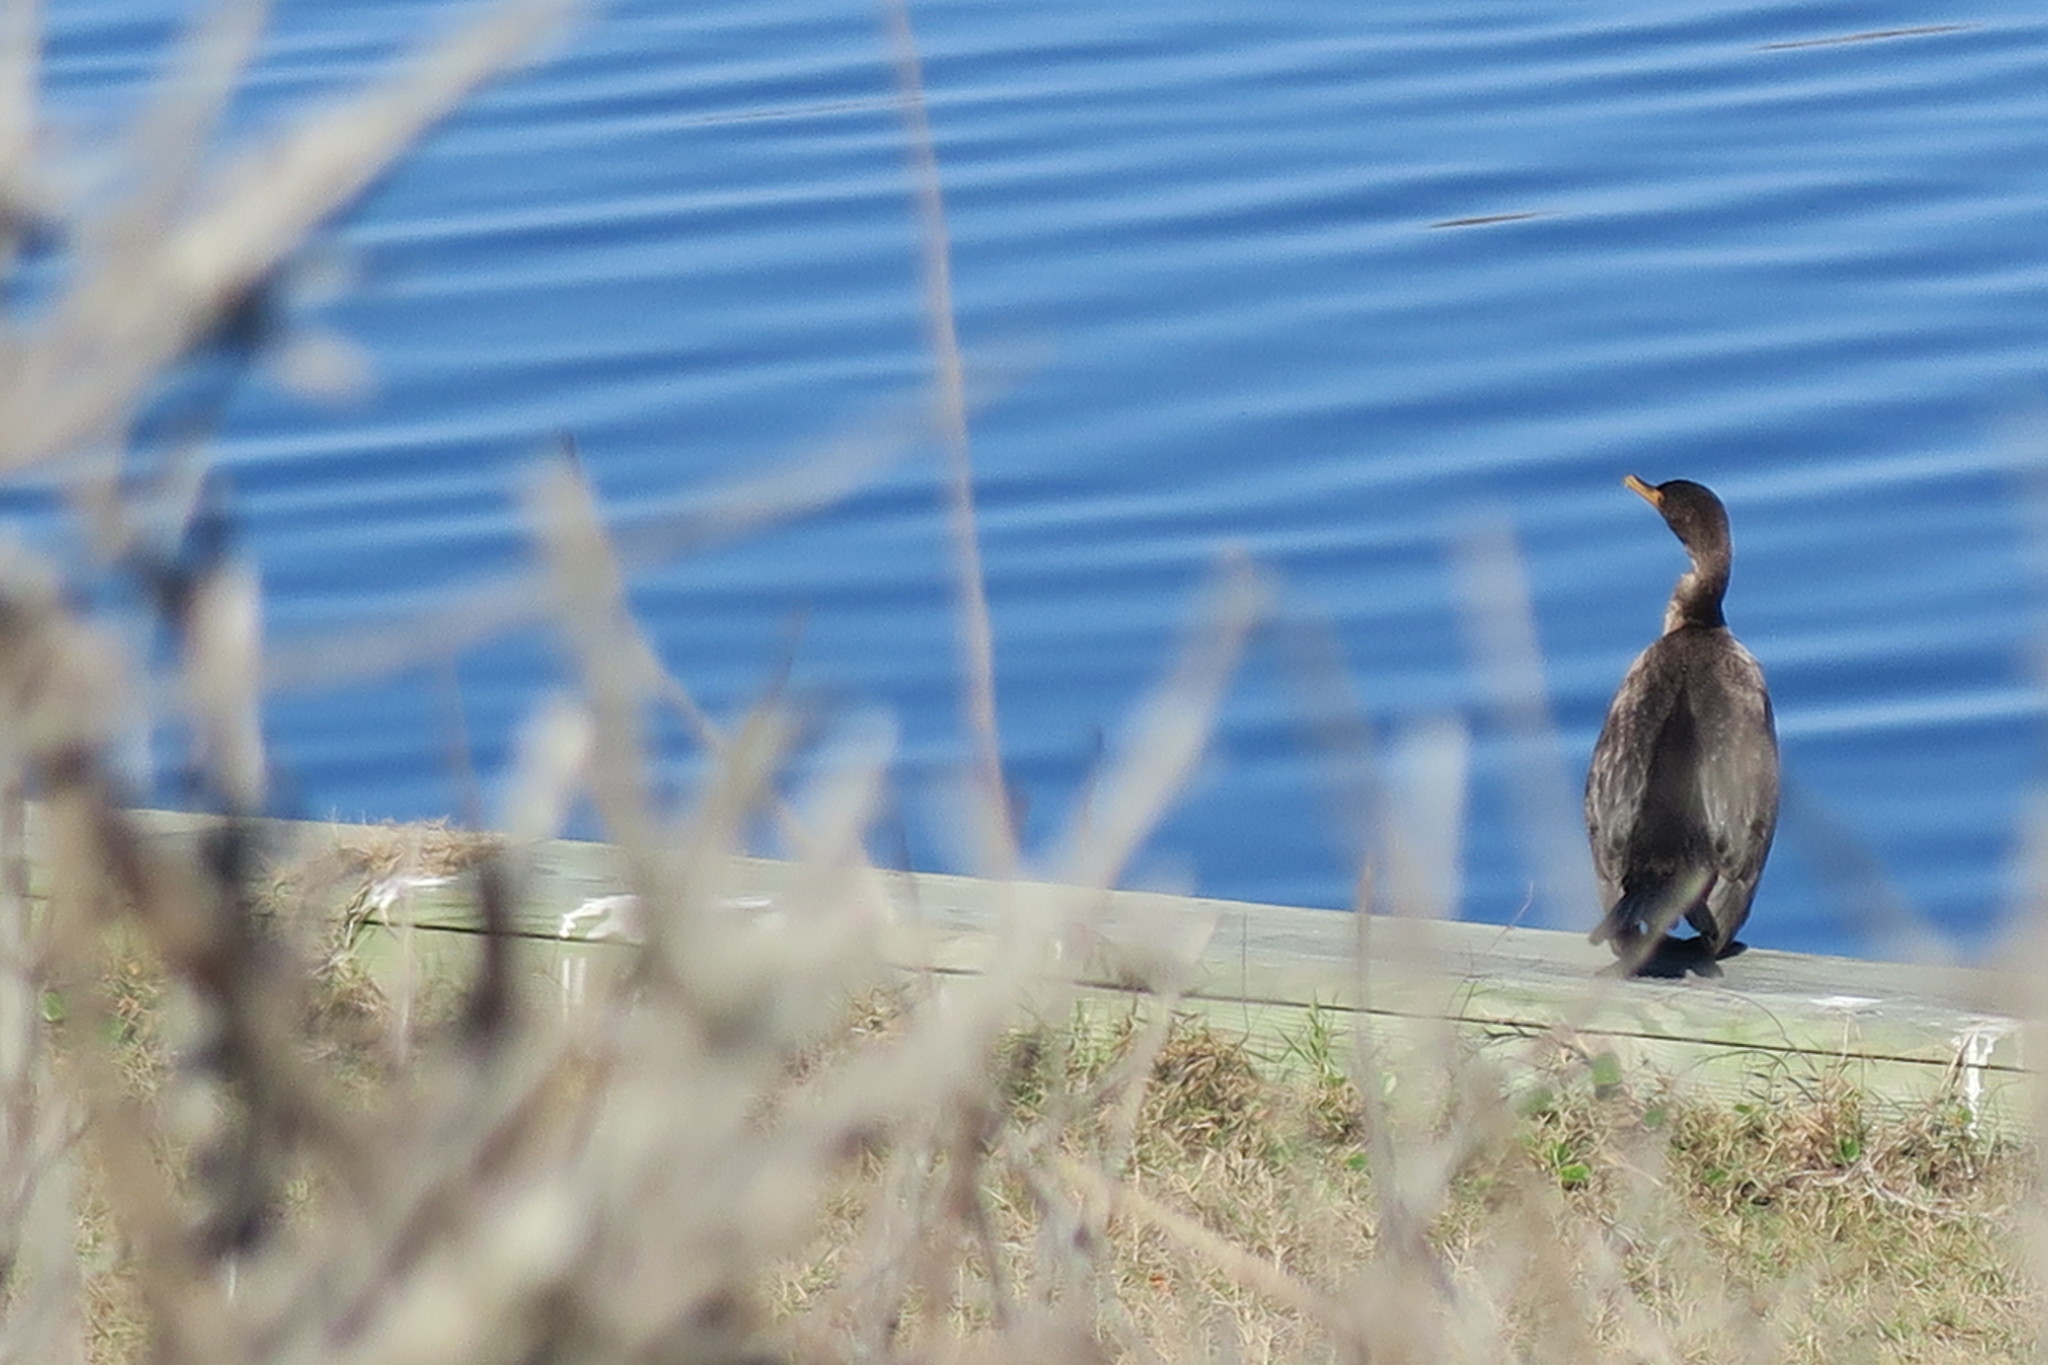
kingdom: Animalia
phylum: Chordata
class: Aves
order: Suliformes
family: Phalacrocoracidae
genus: Phalacrocorax
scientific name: Phalacrocorax auritus
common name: Double-crested cormorant
